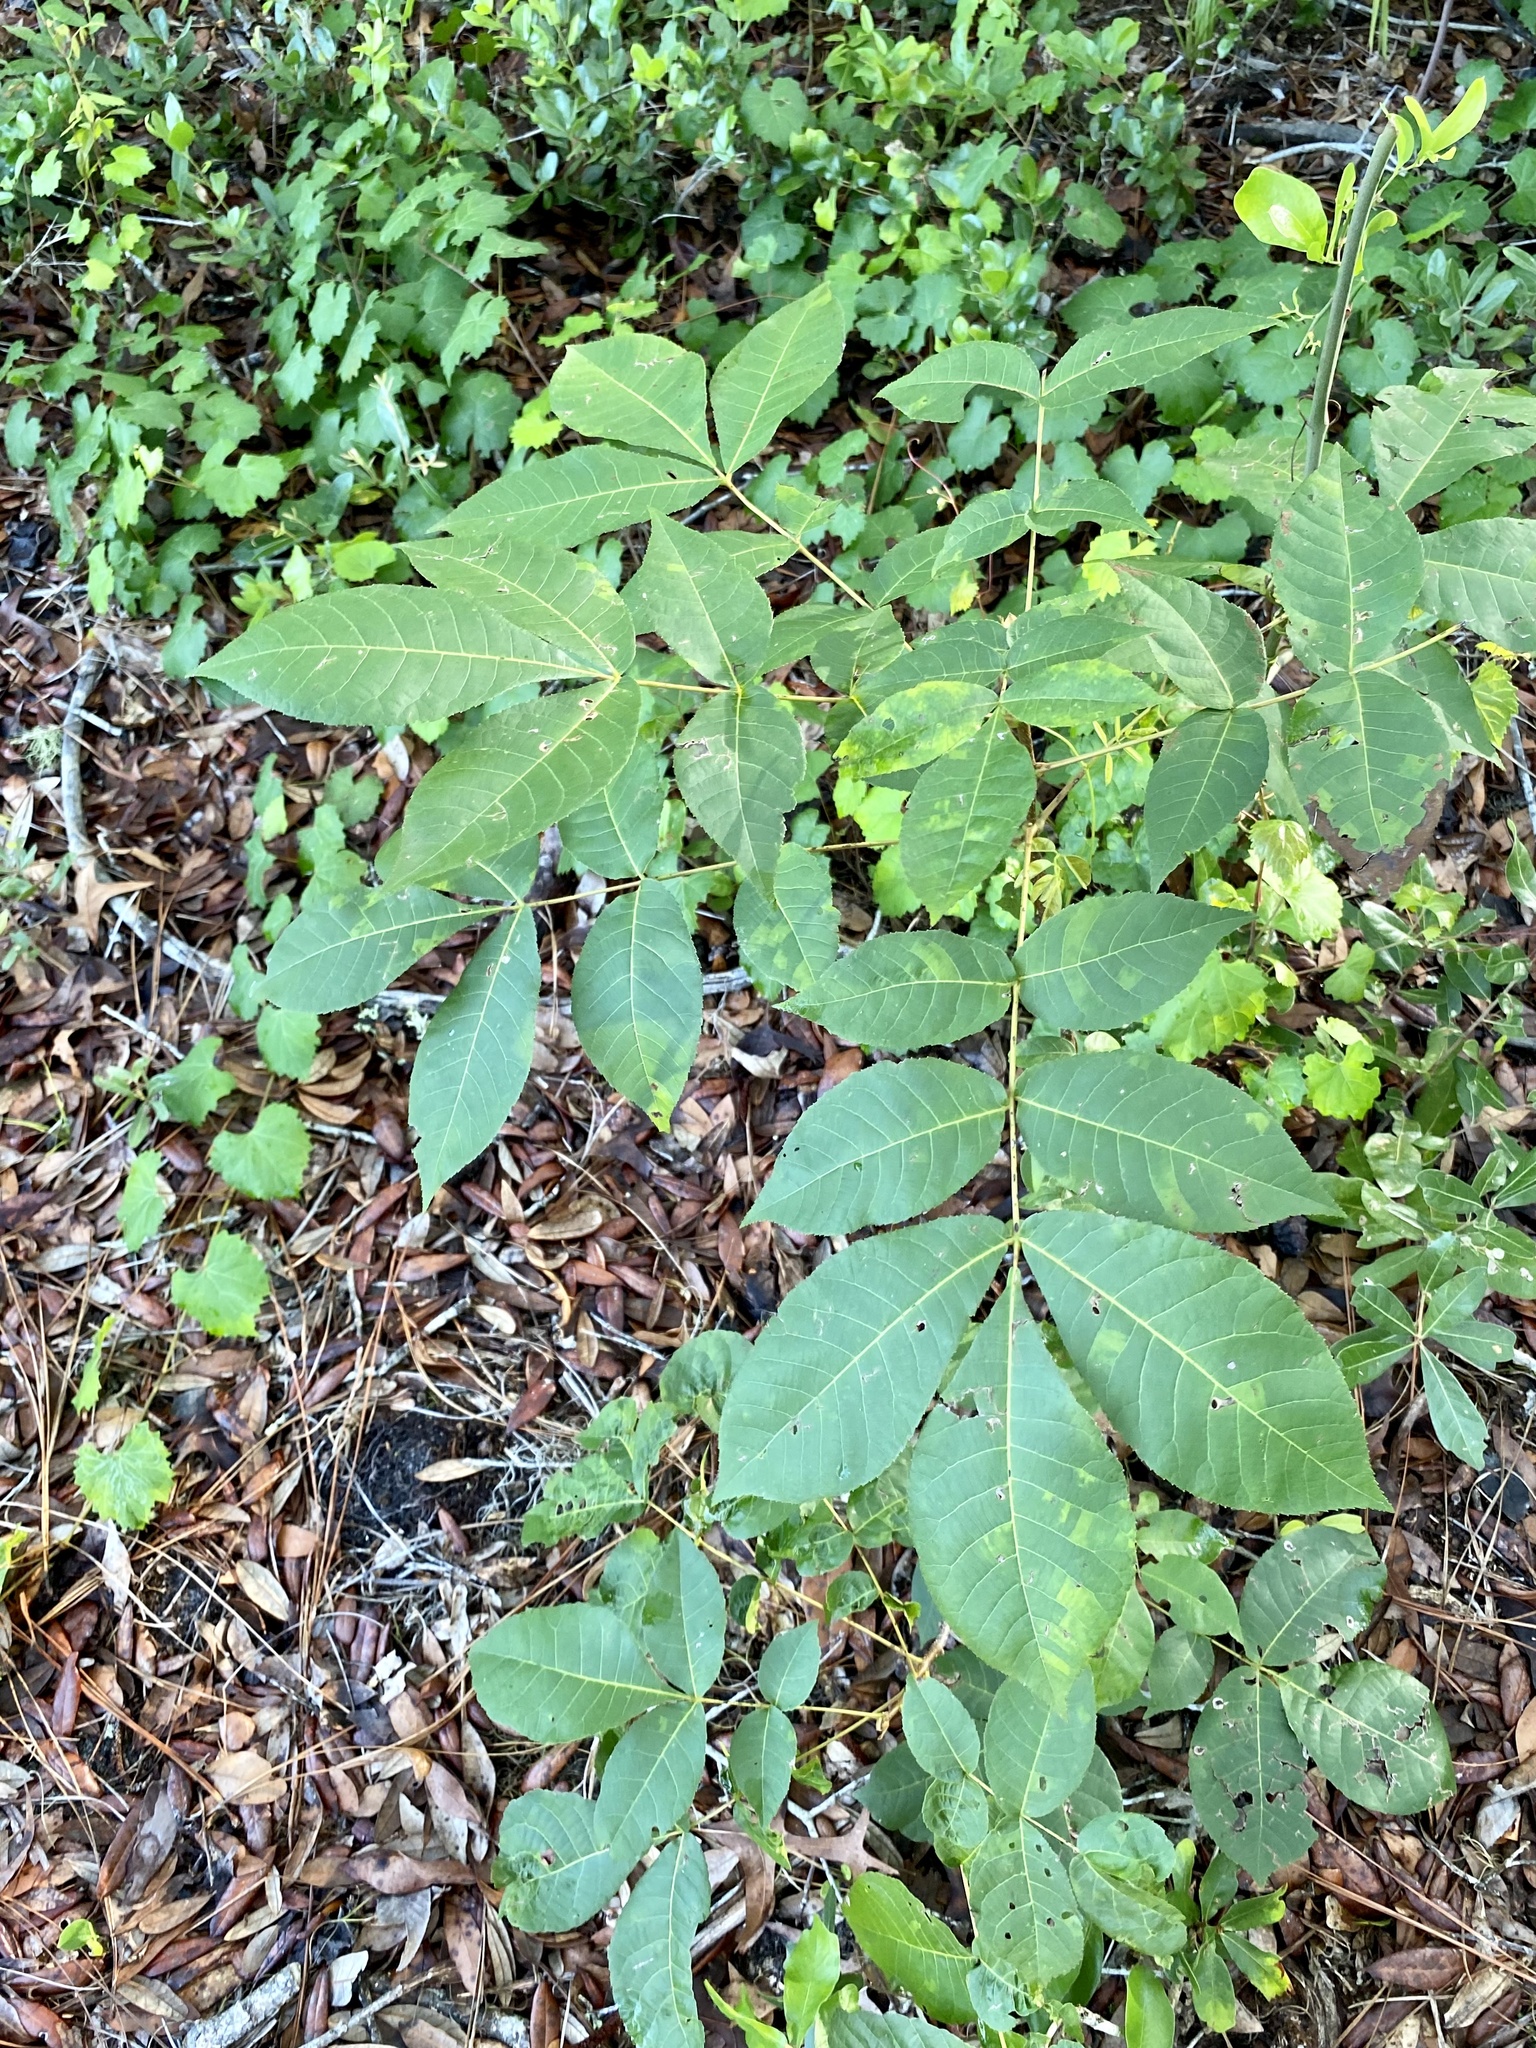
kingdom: Plantae
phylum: Tracheophyta
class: Magnoliopsida
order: Fagales
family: Juglandaceae
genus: Carya
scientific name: Carya glabra
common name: Pignut hickory
